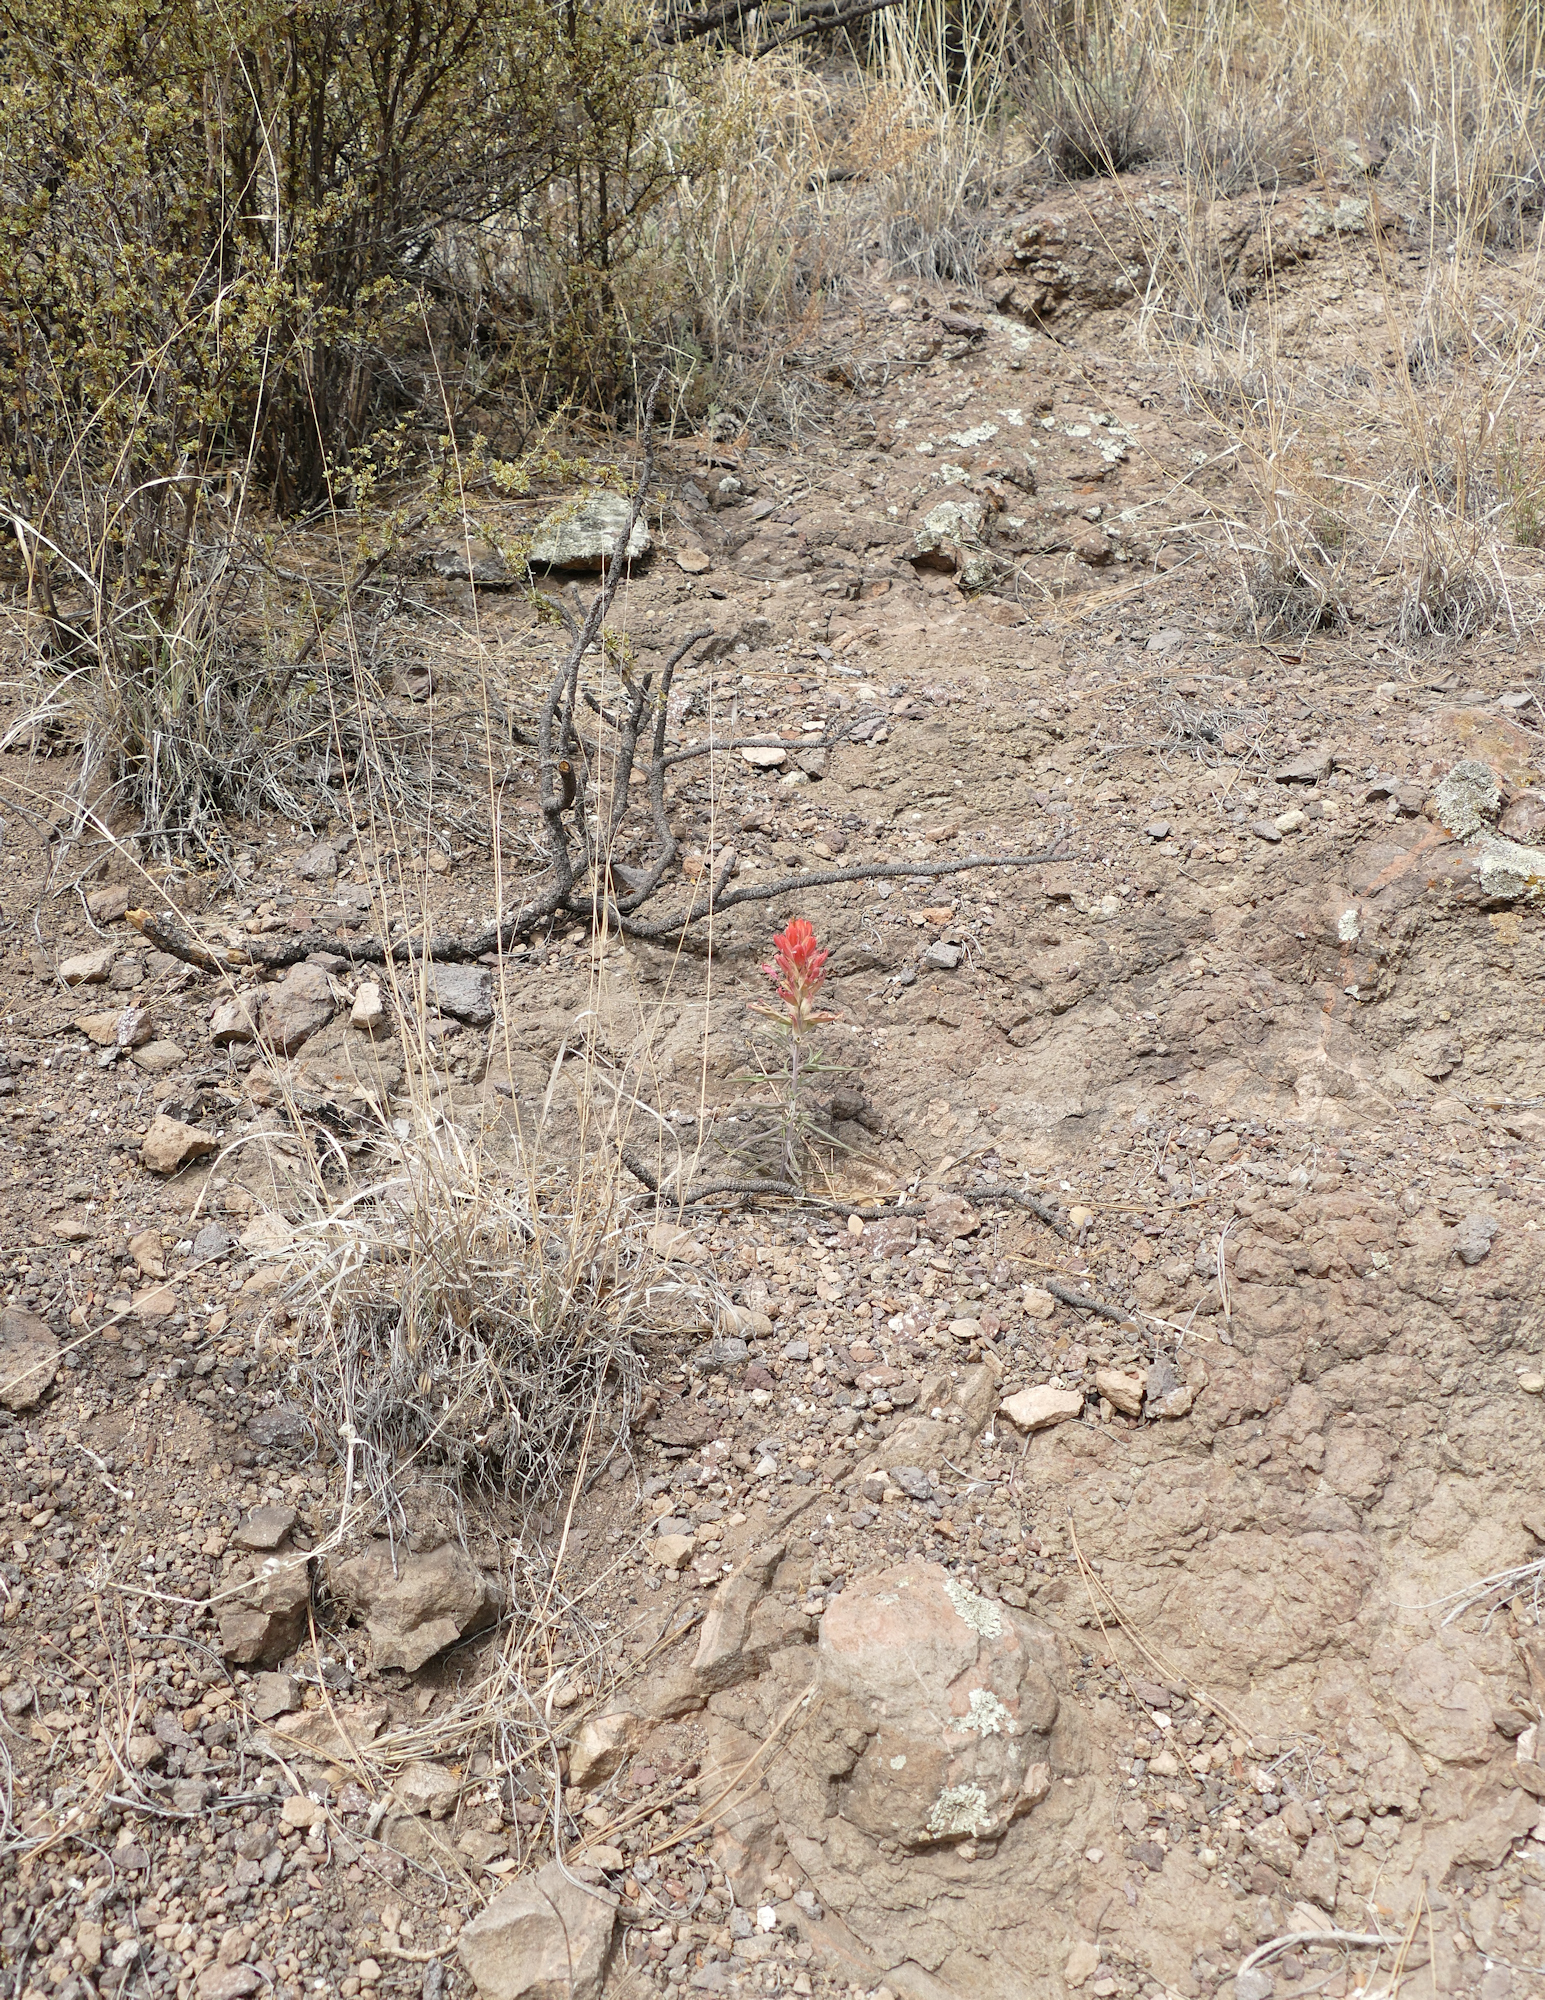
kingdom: Plantae
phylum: Tracheophyta
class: Magnoliopsida
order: Lamiales
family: Orobanchaceae
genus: Castilleja
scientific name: Castilleja integra
